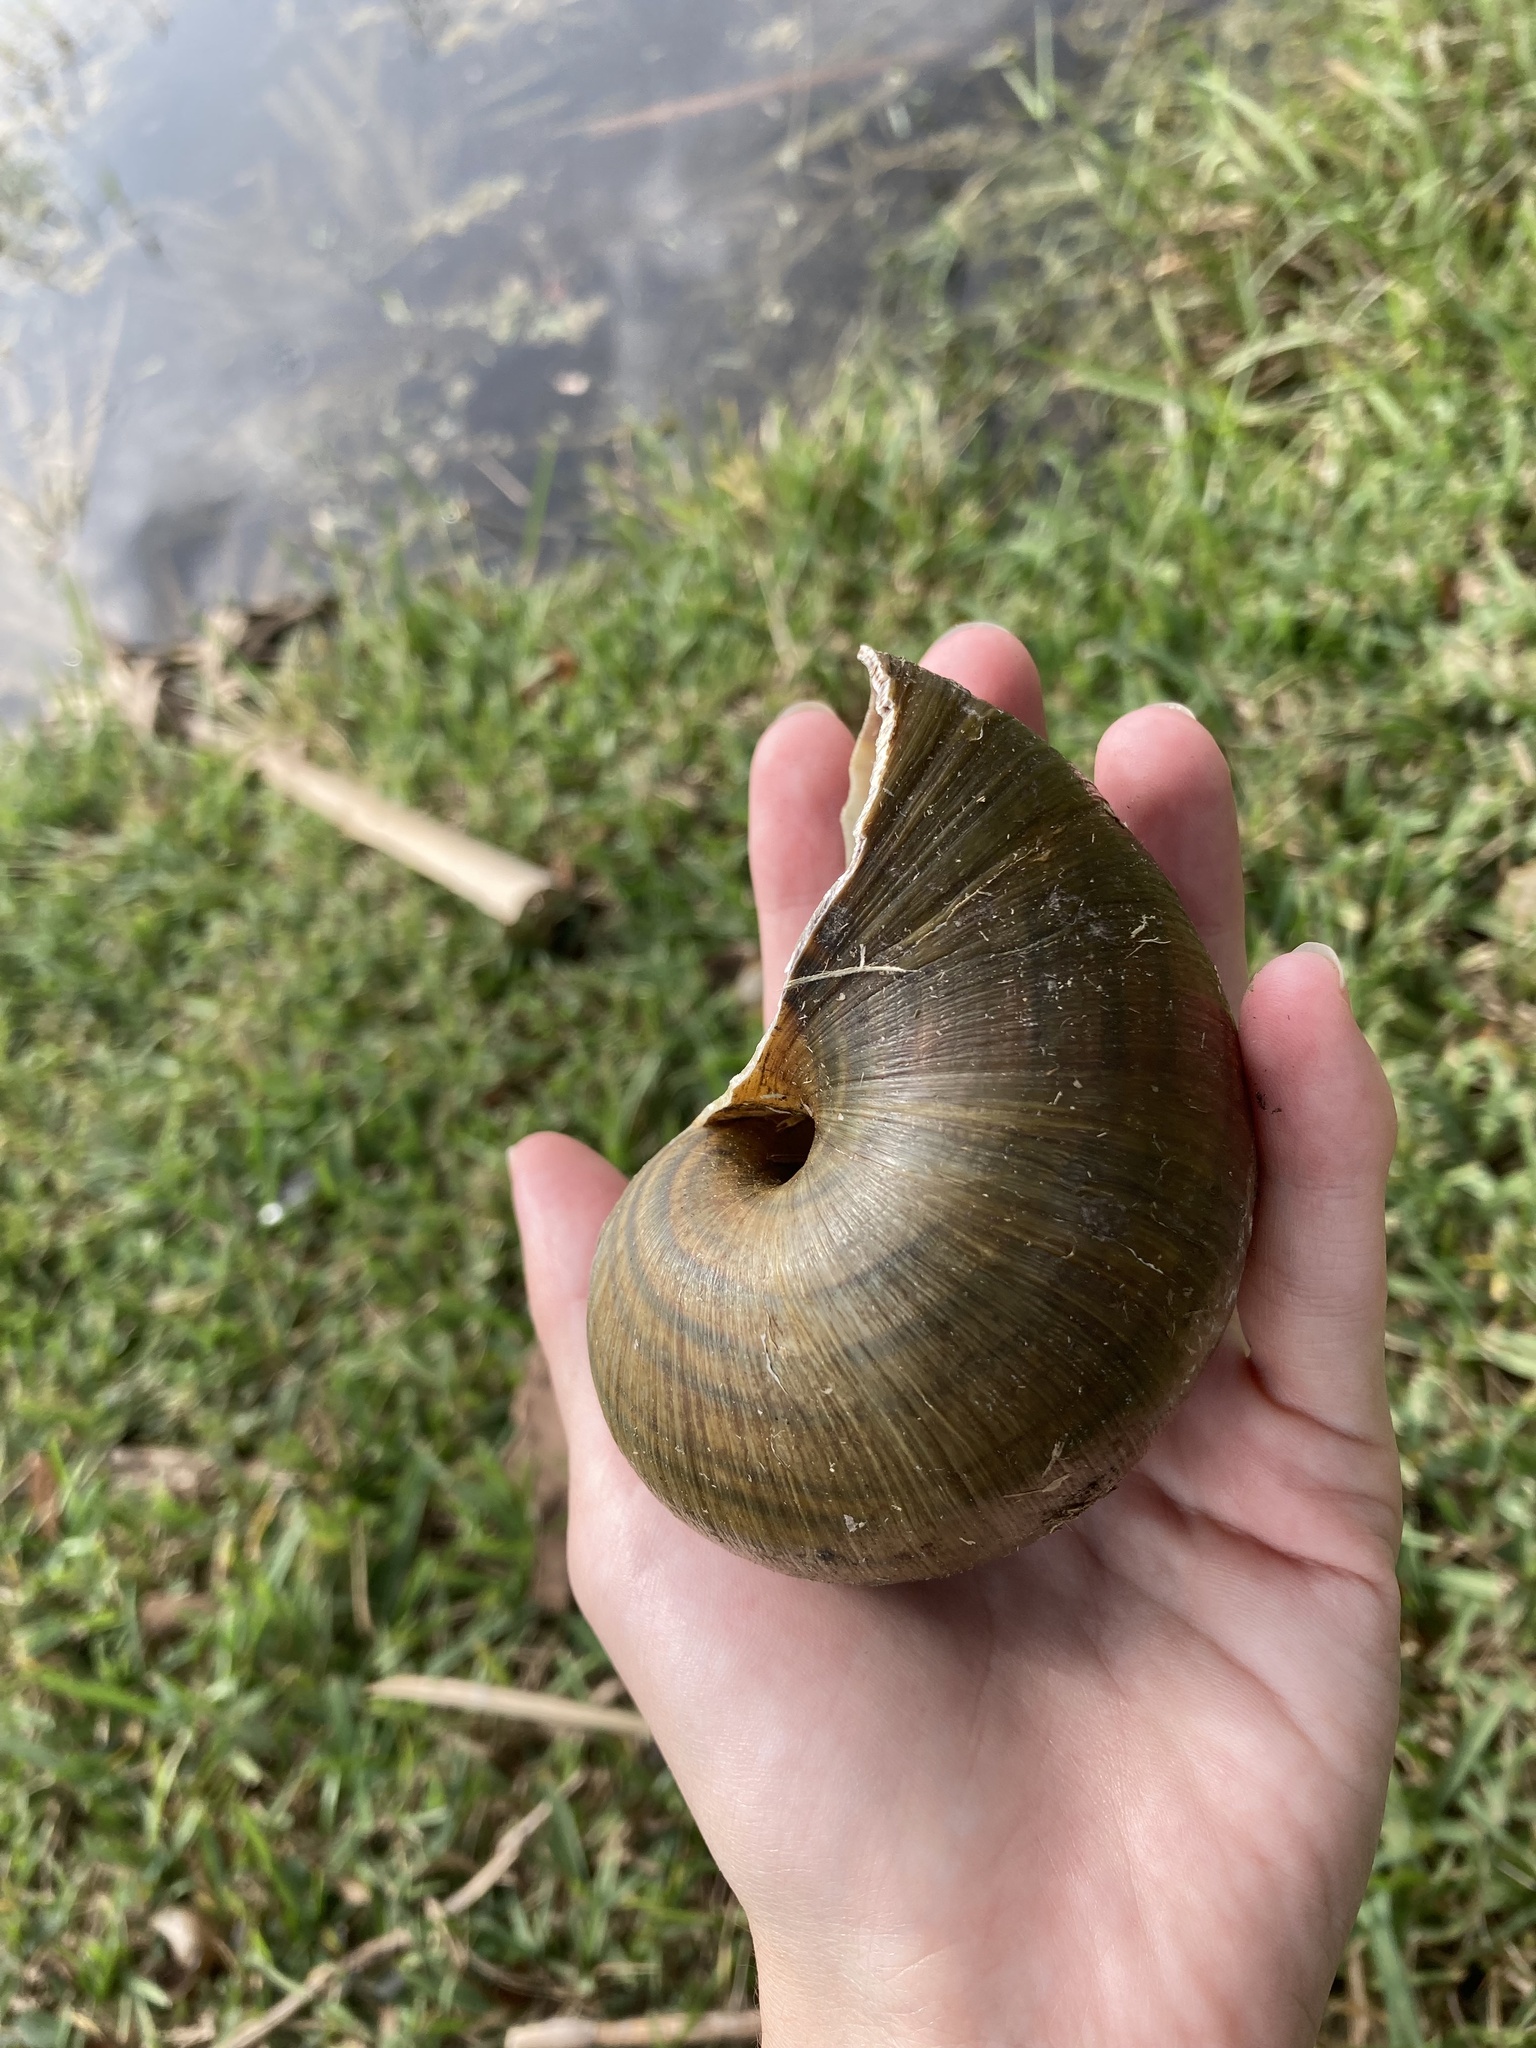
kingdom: Animalia
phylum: Mollusca
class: Gastropoda
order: Architaenioglossa
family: Ampullariidae
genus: Pomacea
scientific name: Pomacea maculata
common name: Giant applesnail
